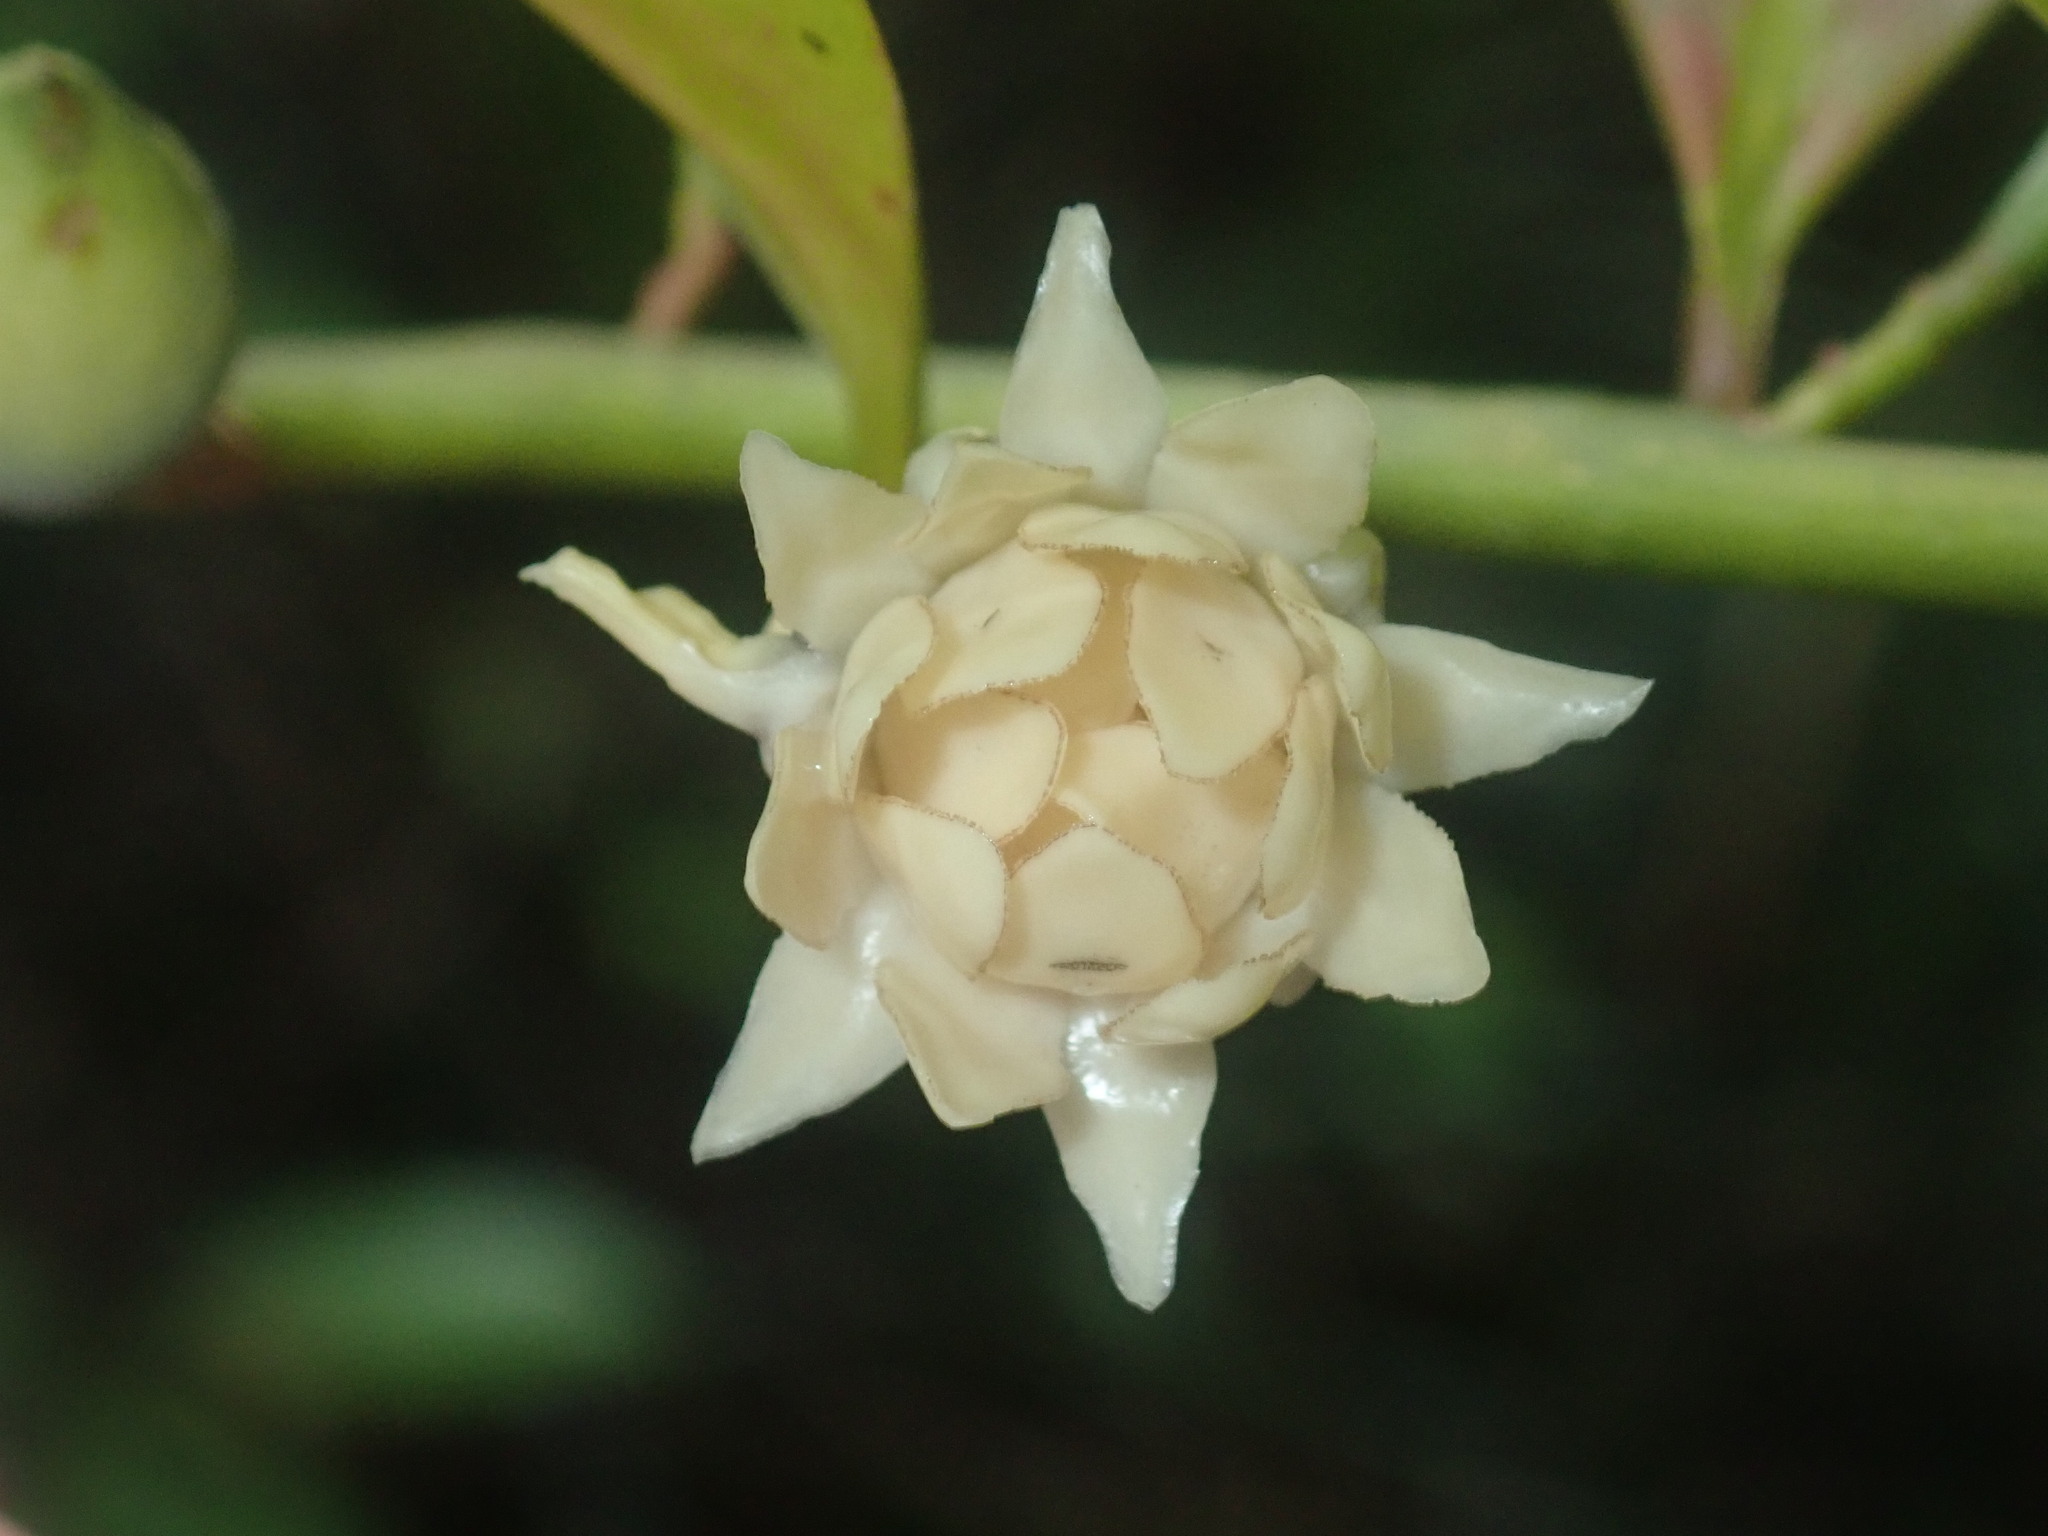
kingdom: Plantae
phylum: Tracheophyta
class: Magnoliopsida
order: Magnoliales
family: Eupomatiaceae
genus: Eupomatia
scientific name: Eupomatia laurina
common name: Bolwarra
